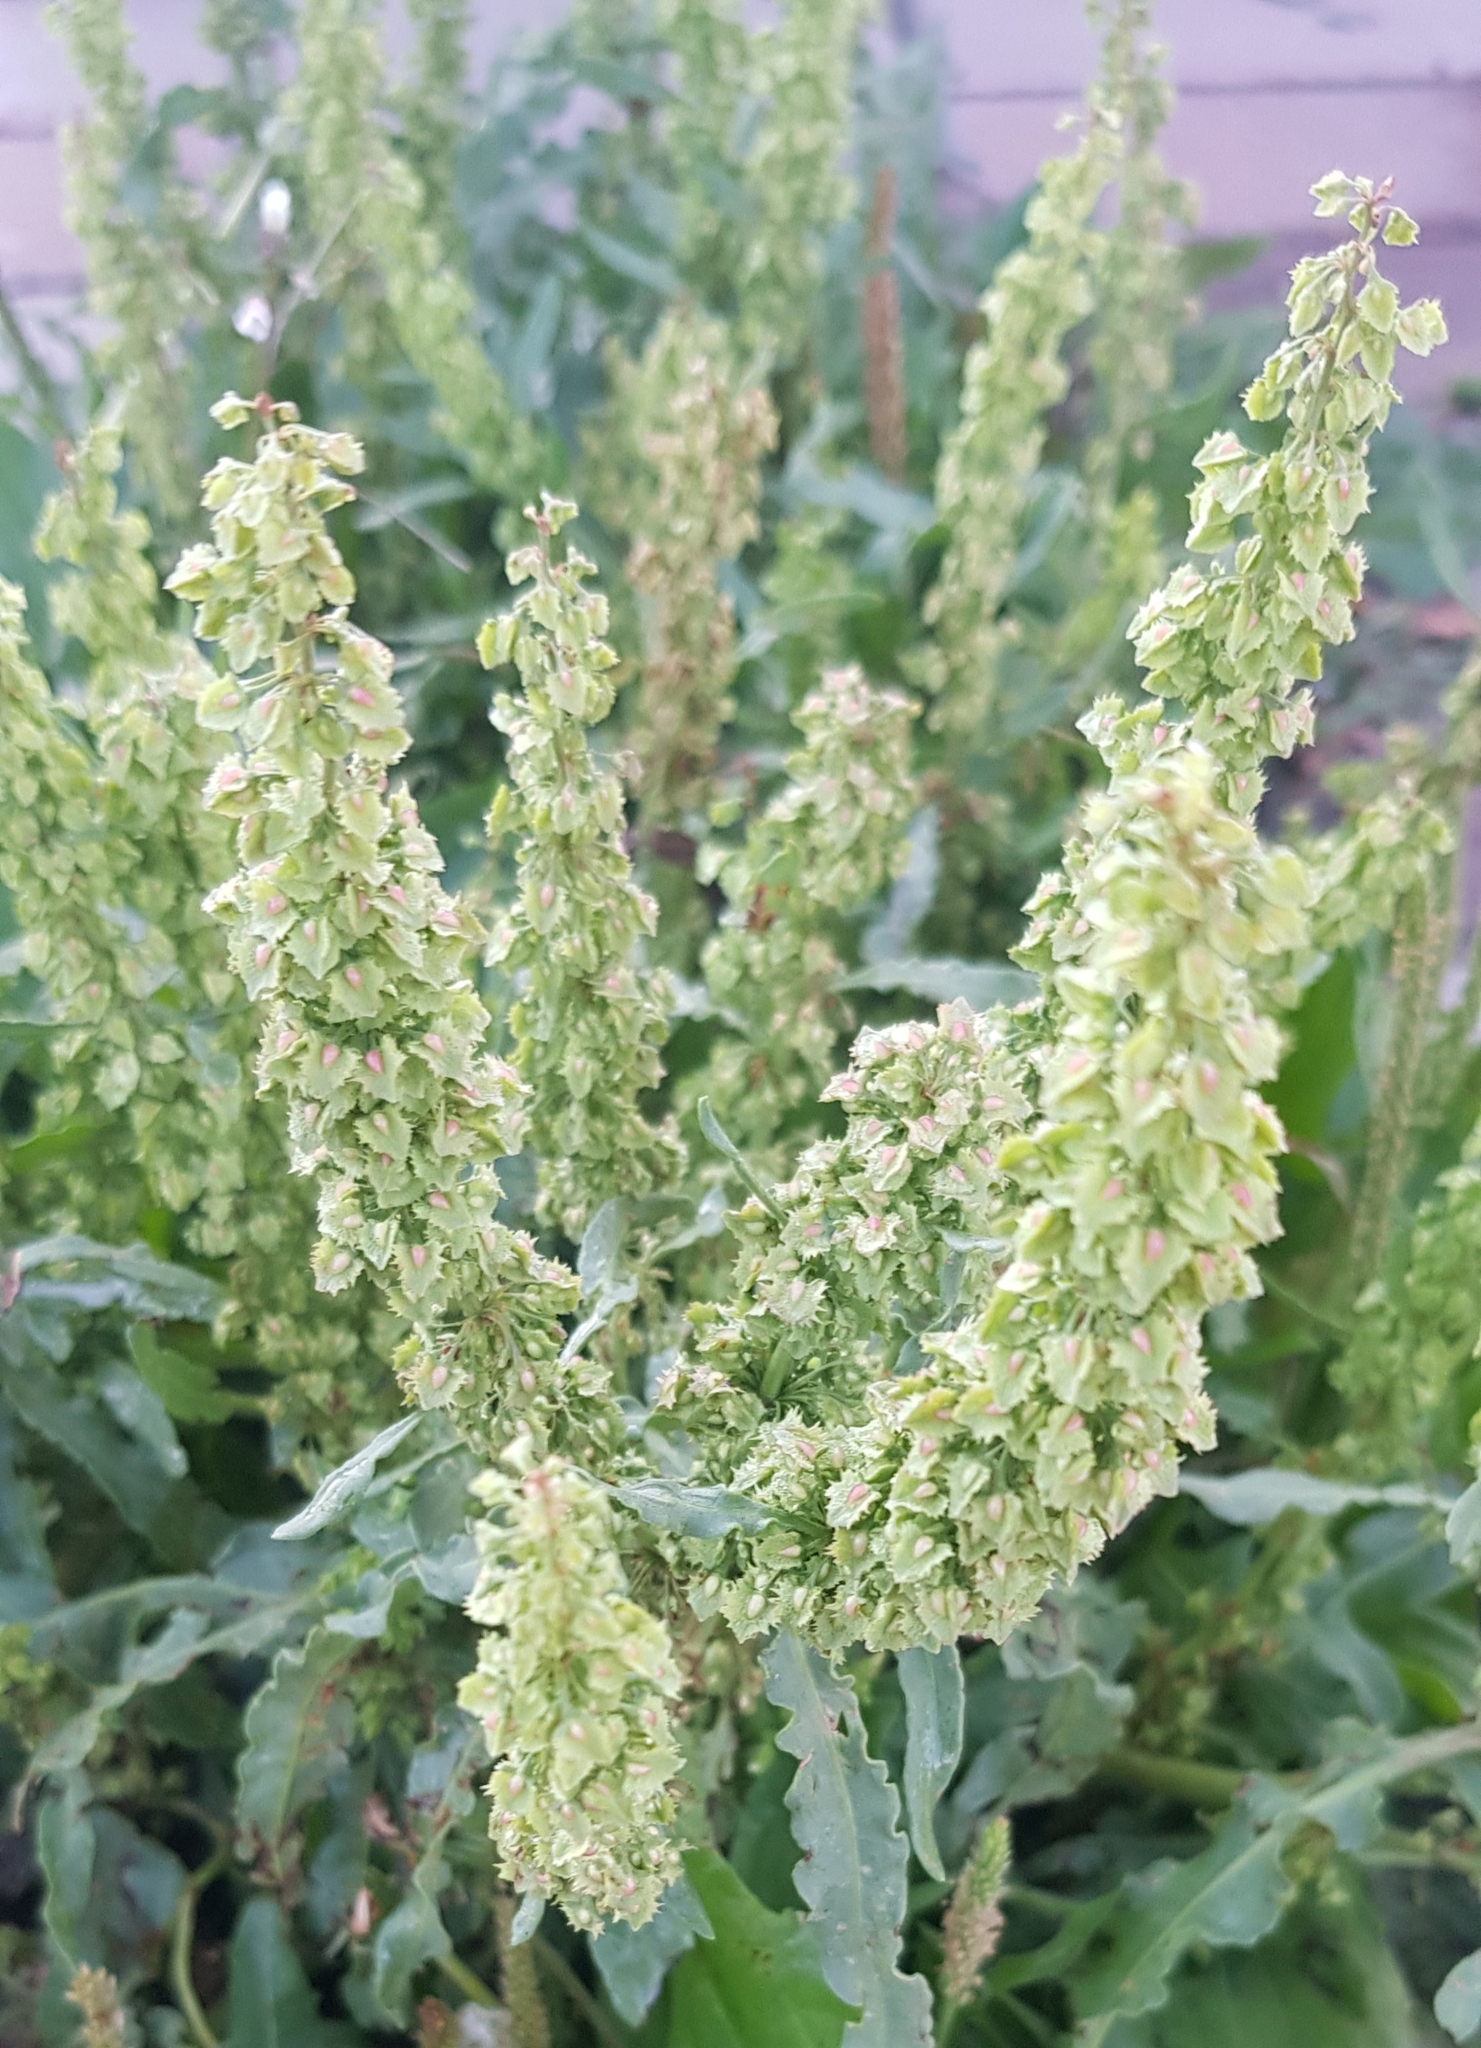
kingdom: Plantae
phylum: Tracheophyta
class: Magnoliopsida
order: Caryophyllales
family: Polygonaceae
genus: Rumex
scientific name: Rumex stenophyllus
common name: Narrowleaf dock
